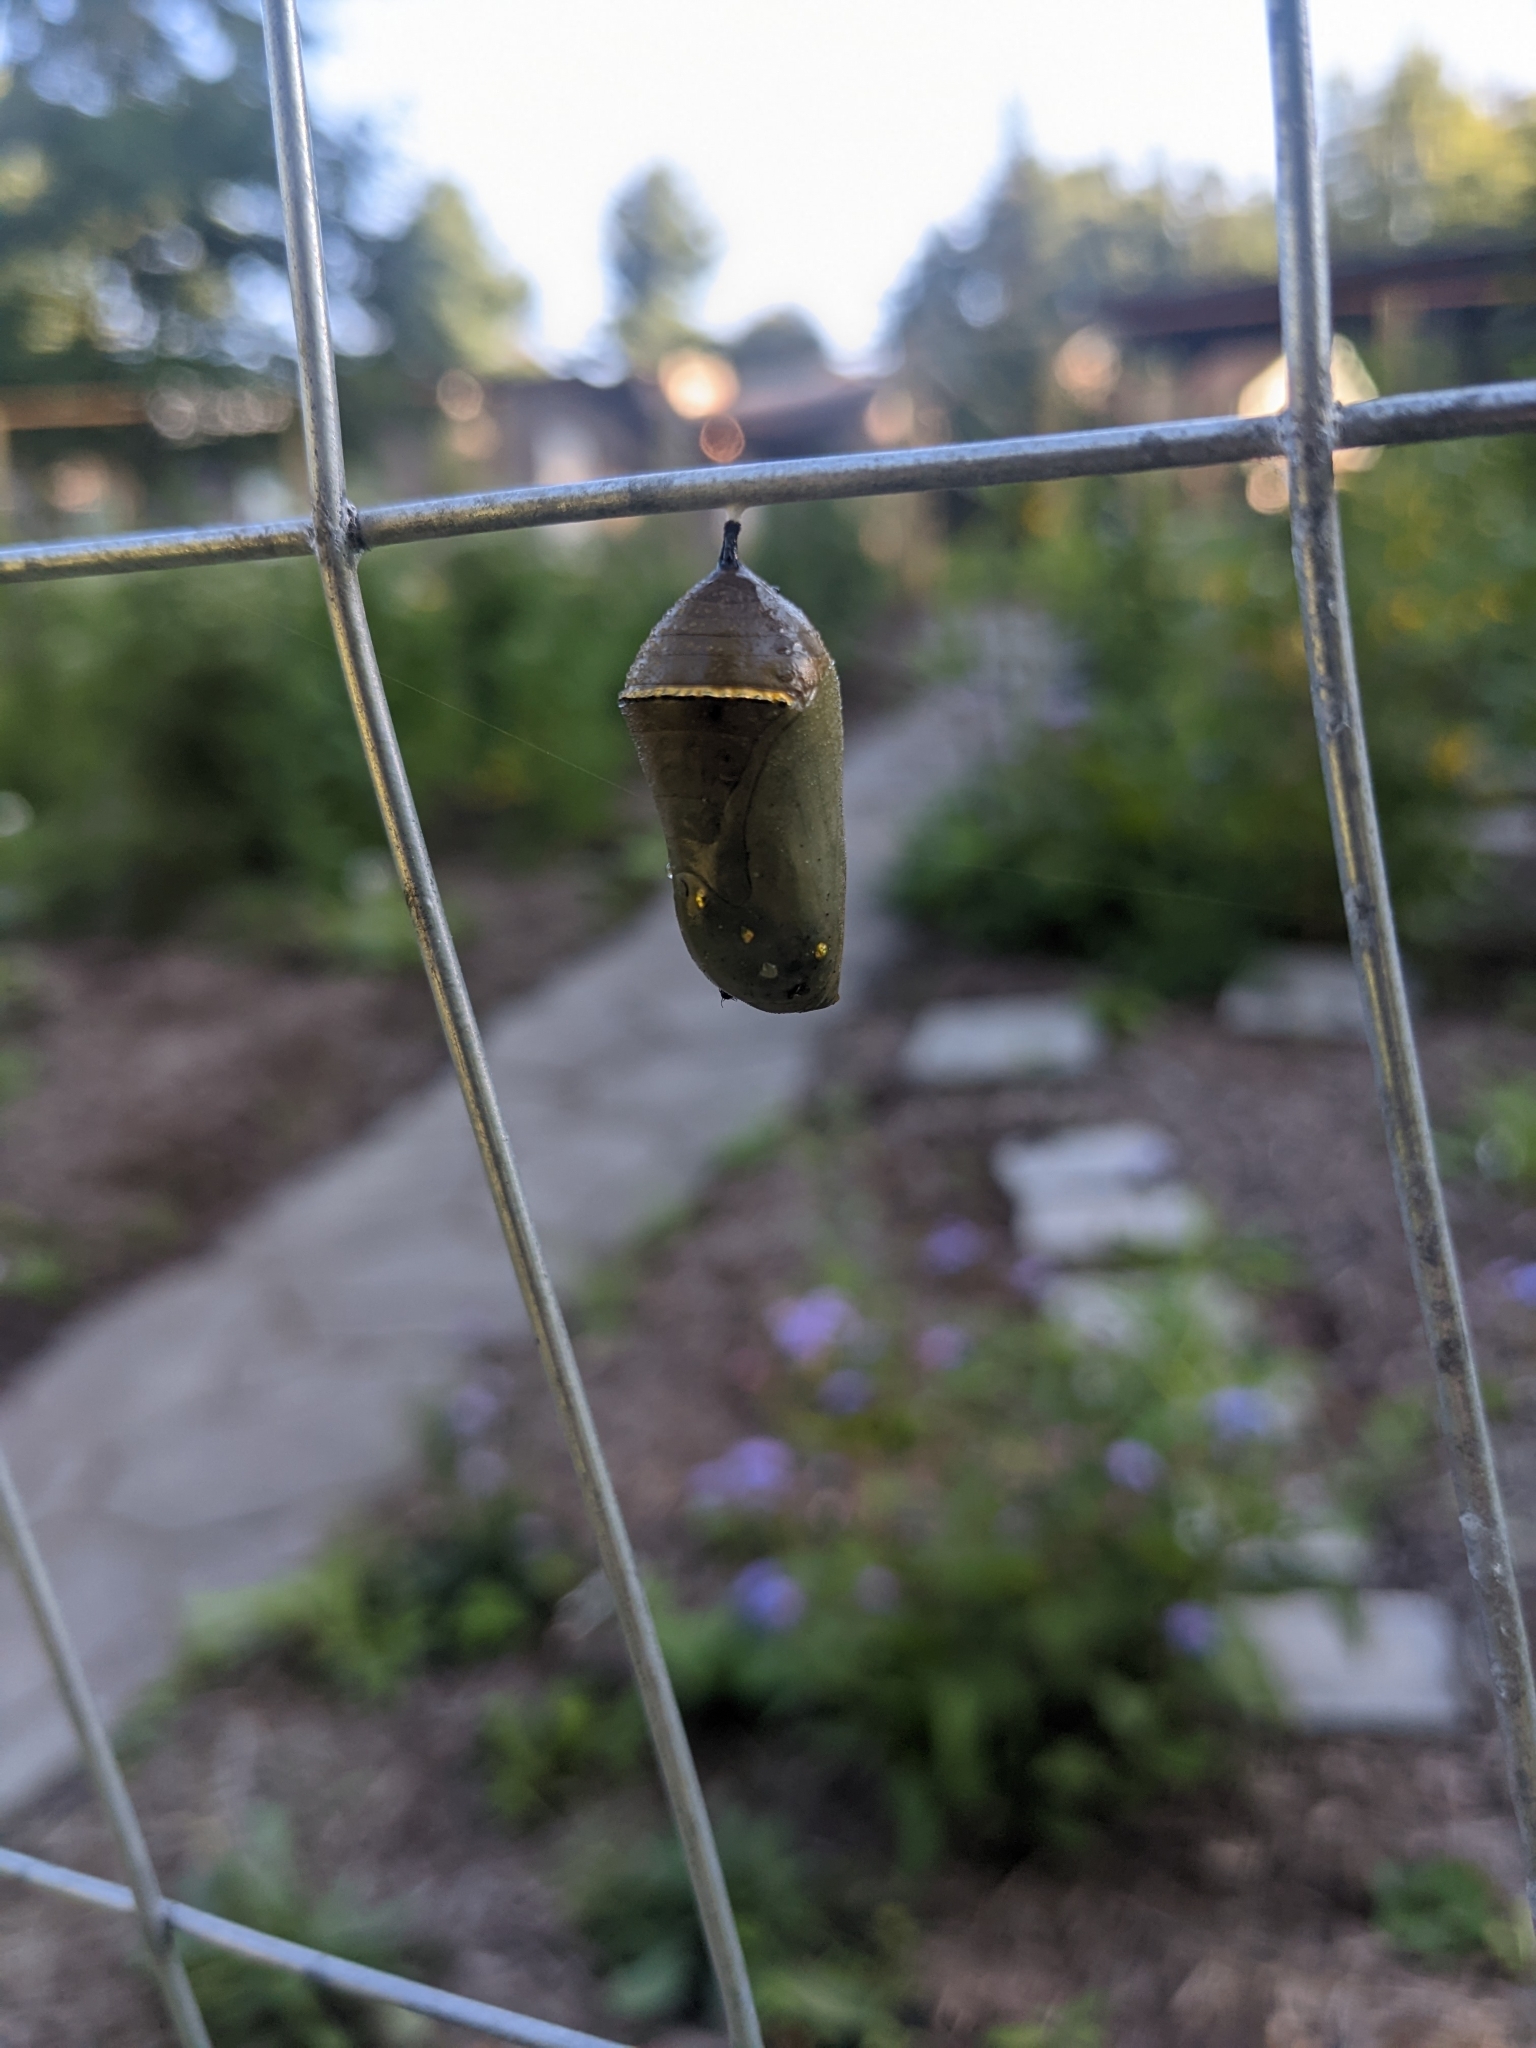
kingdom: Animalia
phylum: Arthropoda
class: Insecta
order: Lepidoptera
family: Nymphalidae
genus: Danaus
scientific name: Danaus plexippus
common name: Monarch
